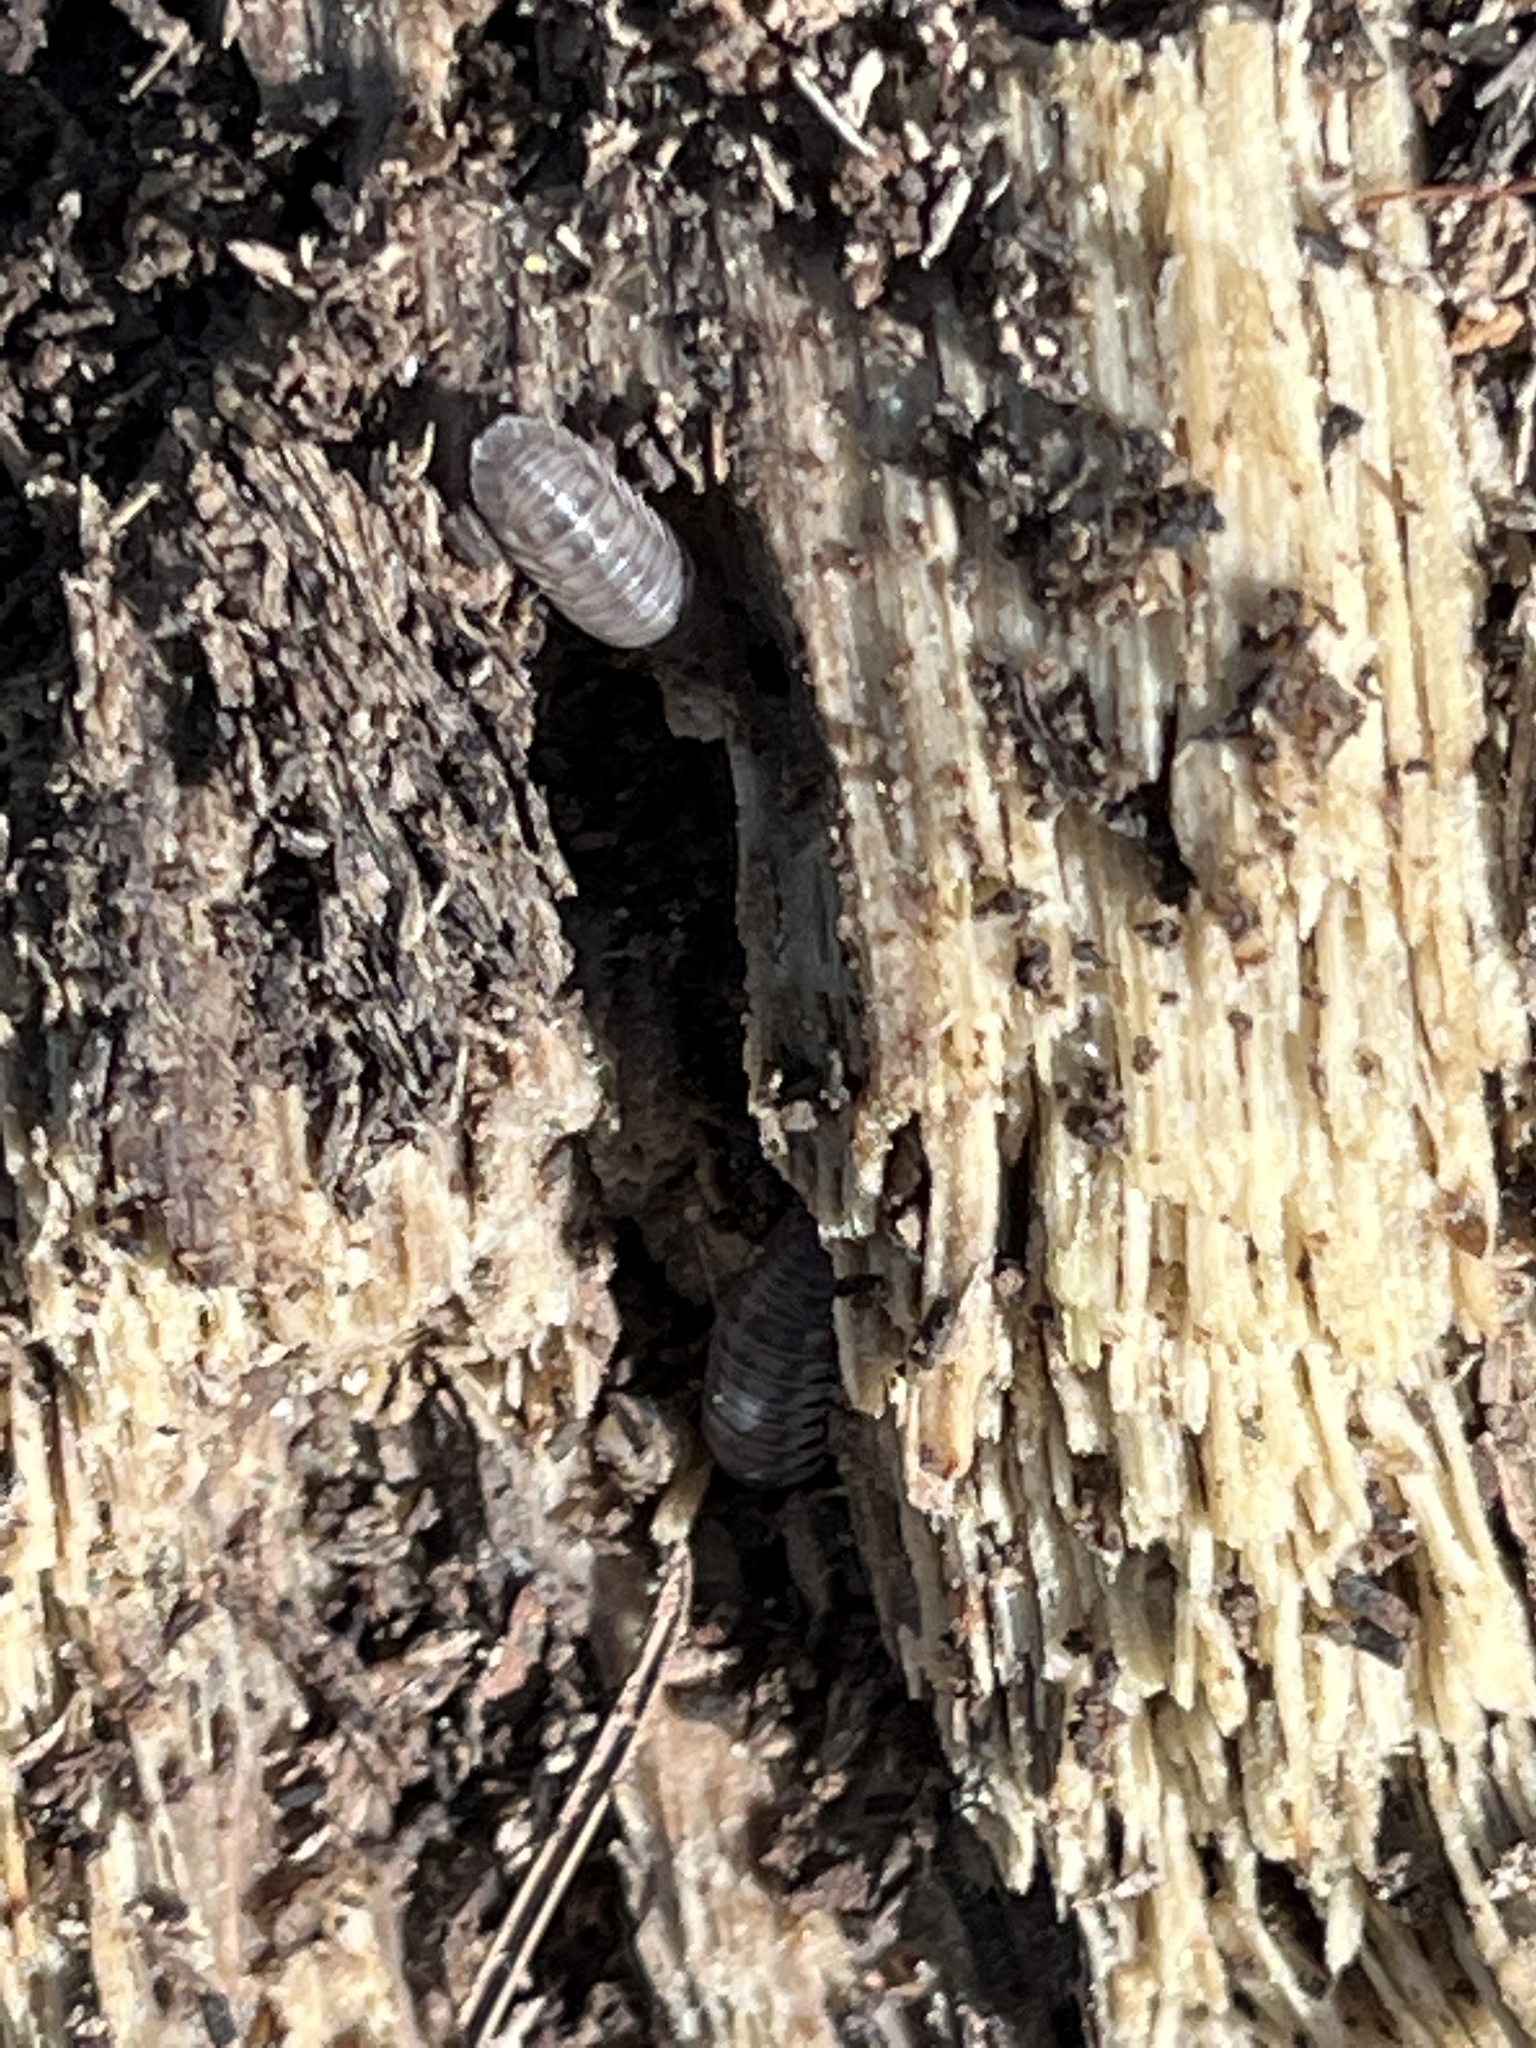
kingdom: Animalia
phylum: Arthropoda
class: Malacostraca
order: Isopoda
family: Armadillidiidae
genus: Armadillidium
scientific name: Armadillidium nasatum
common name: Isopod
